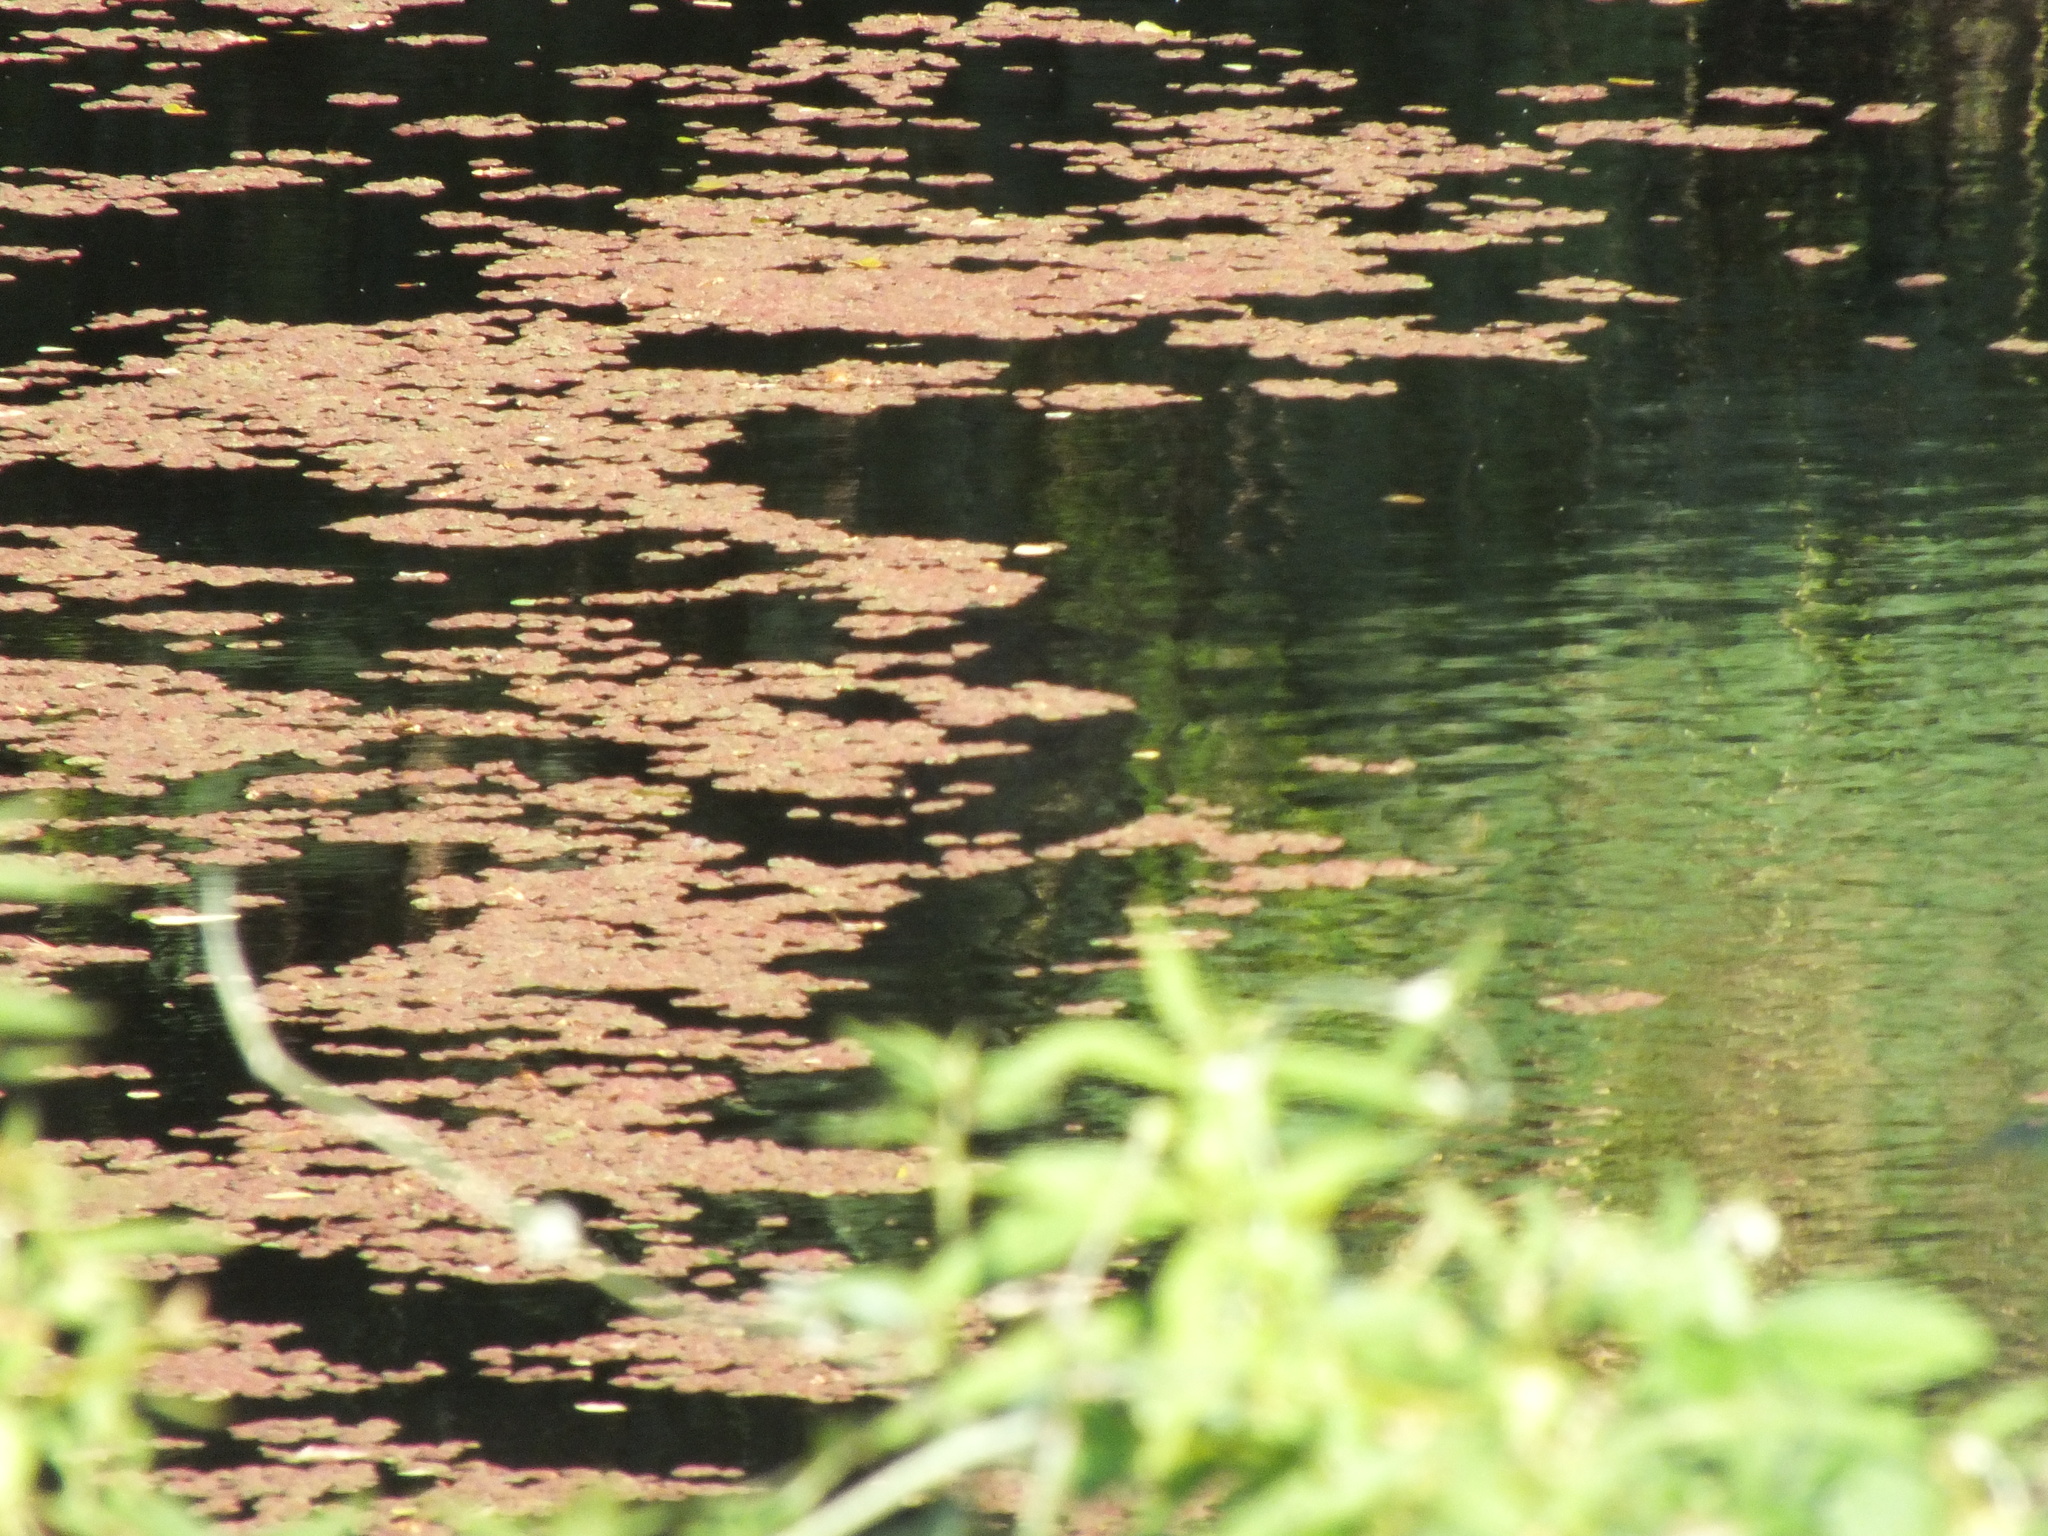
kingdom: Plantae
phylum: Tracheophyta
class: Polypodiopsida
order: Salviniales
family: Salviniaceae
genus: Azolla
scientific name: Azolla filiculoides
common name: Water fern
